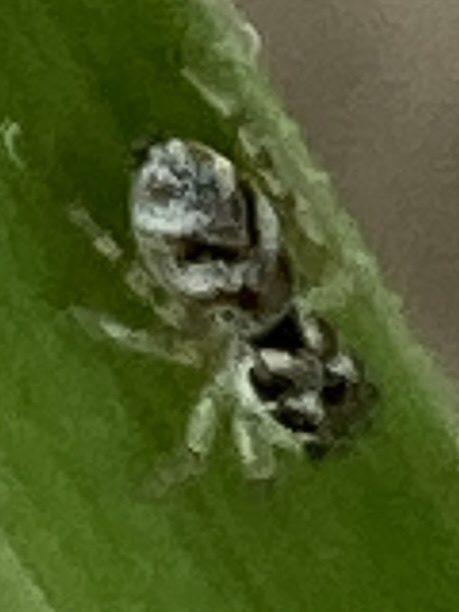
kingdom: Animalia
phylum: Arthropoda
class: Arachnida
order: Araneae
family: Salticidae
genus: Salticus
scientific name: Salticus scenicus
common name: Zebra jumper
